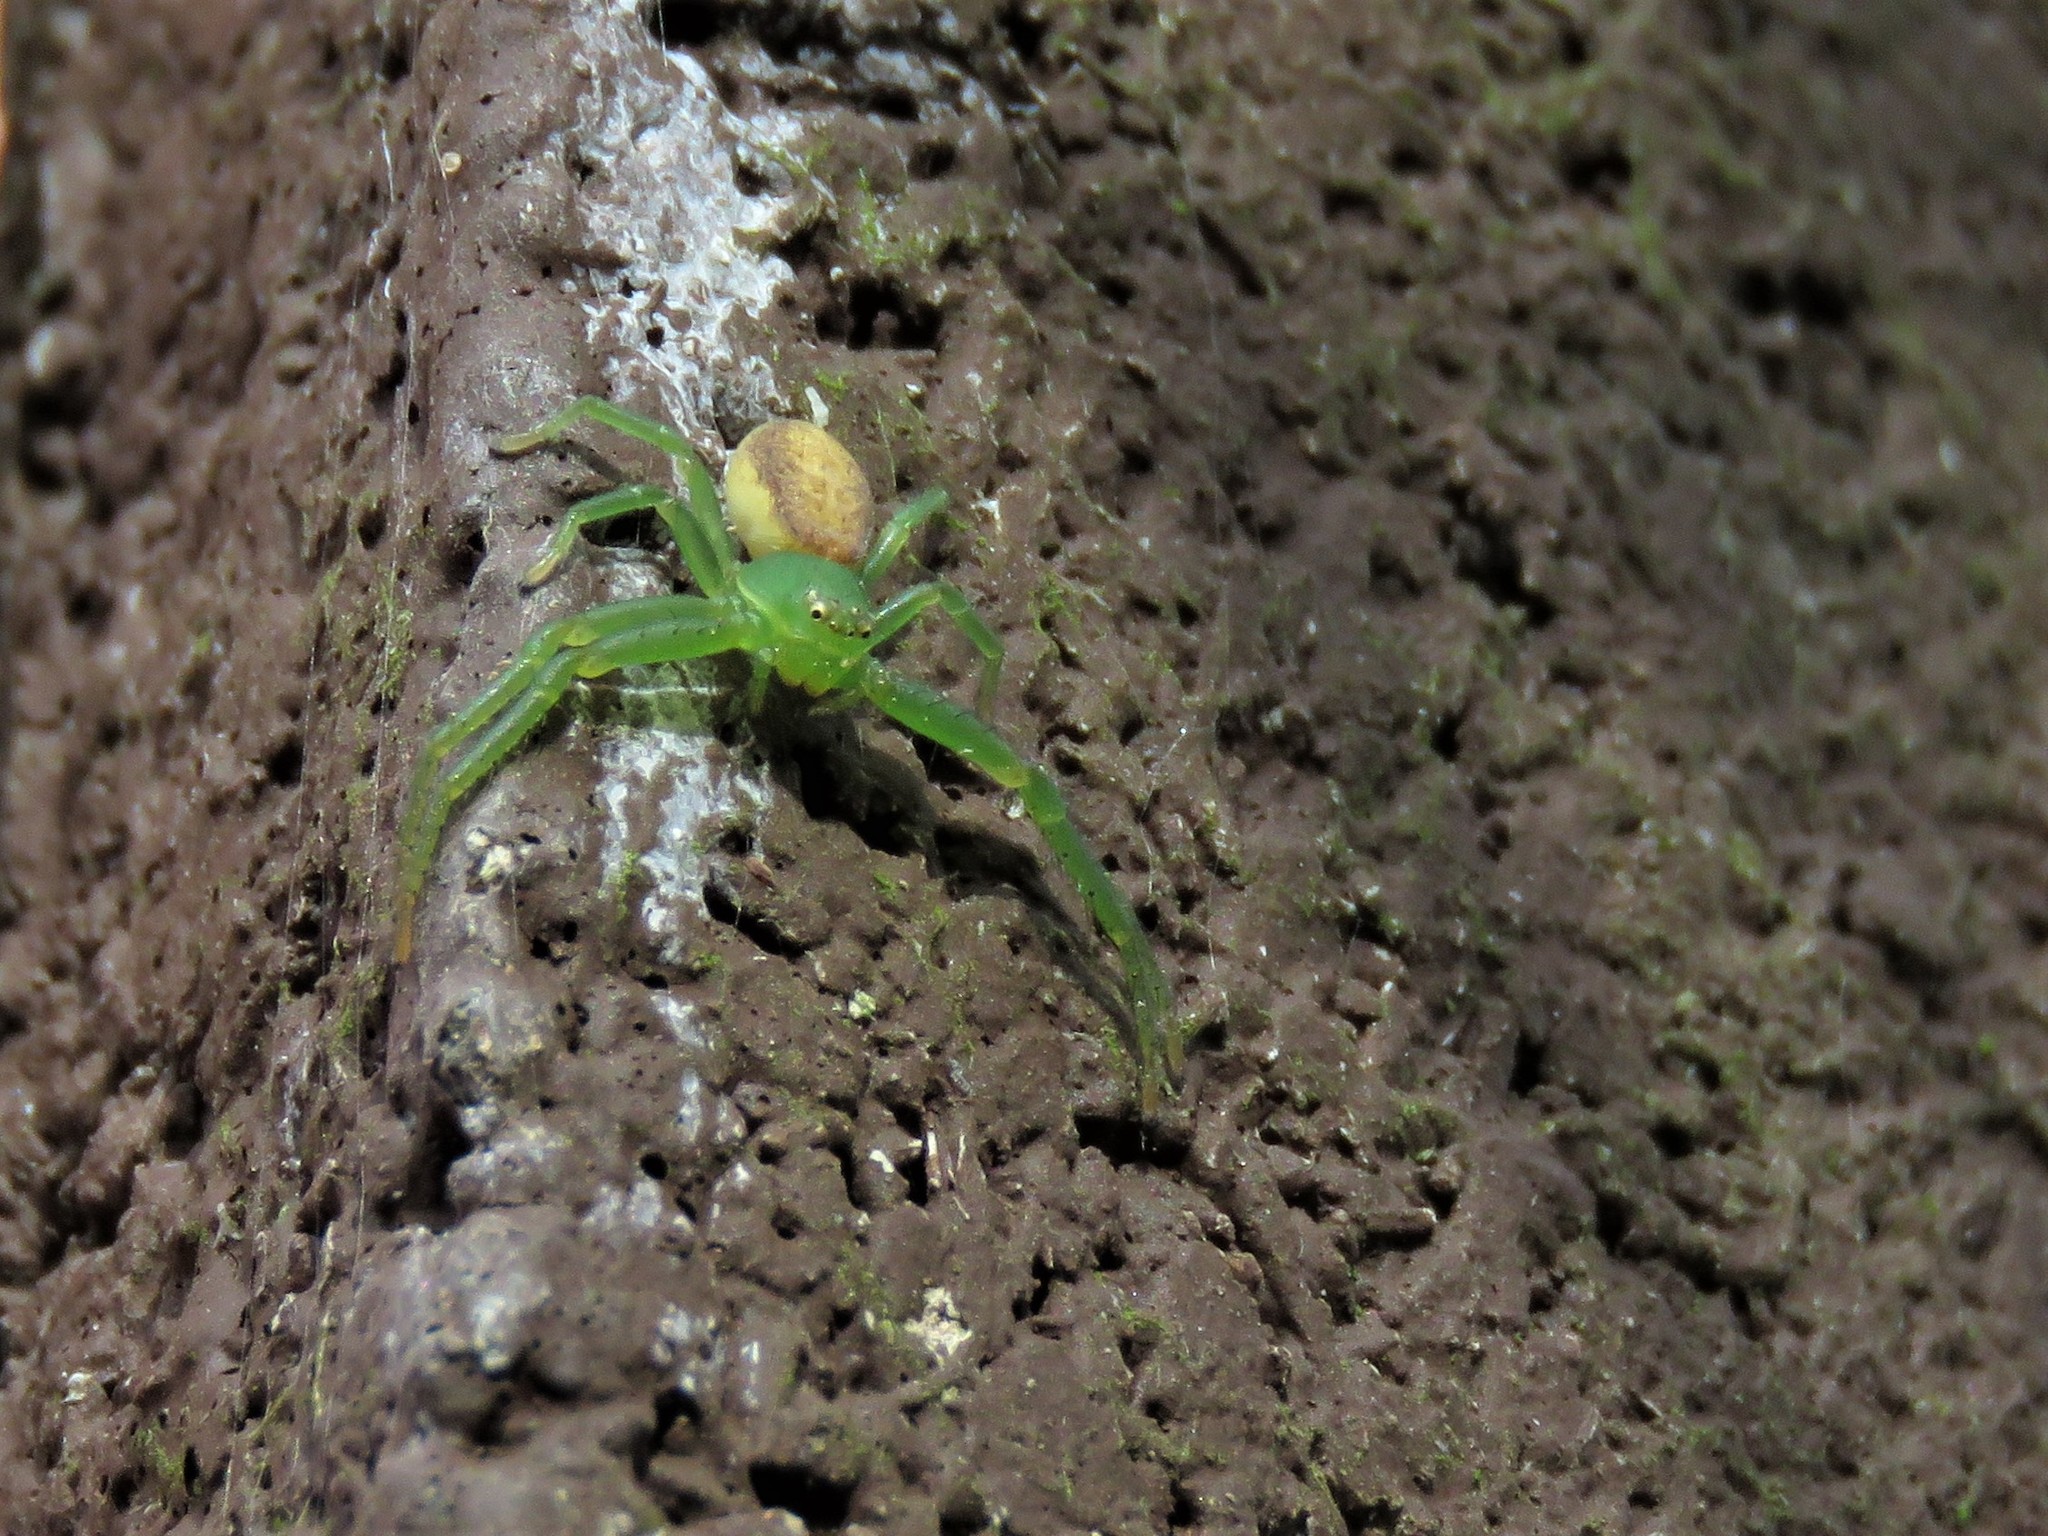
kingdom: Animalia
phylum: Arthropoda
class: Arachnida
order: Araneae
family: Thomisidae
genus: Diaea
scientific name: Diaea dorsata
